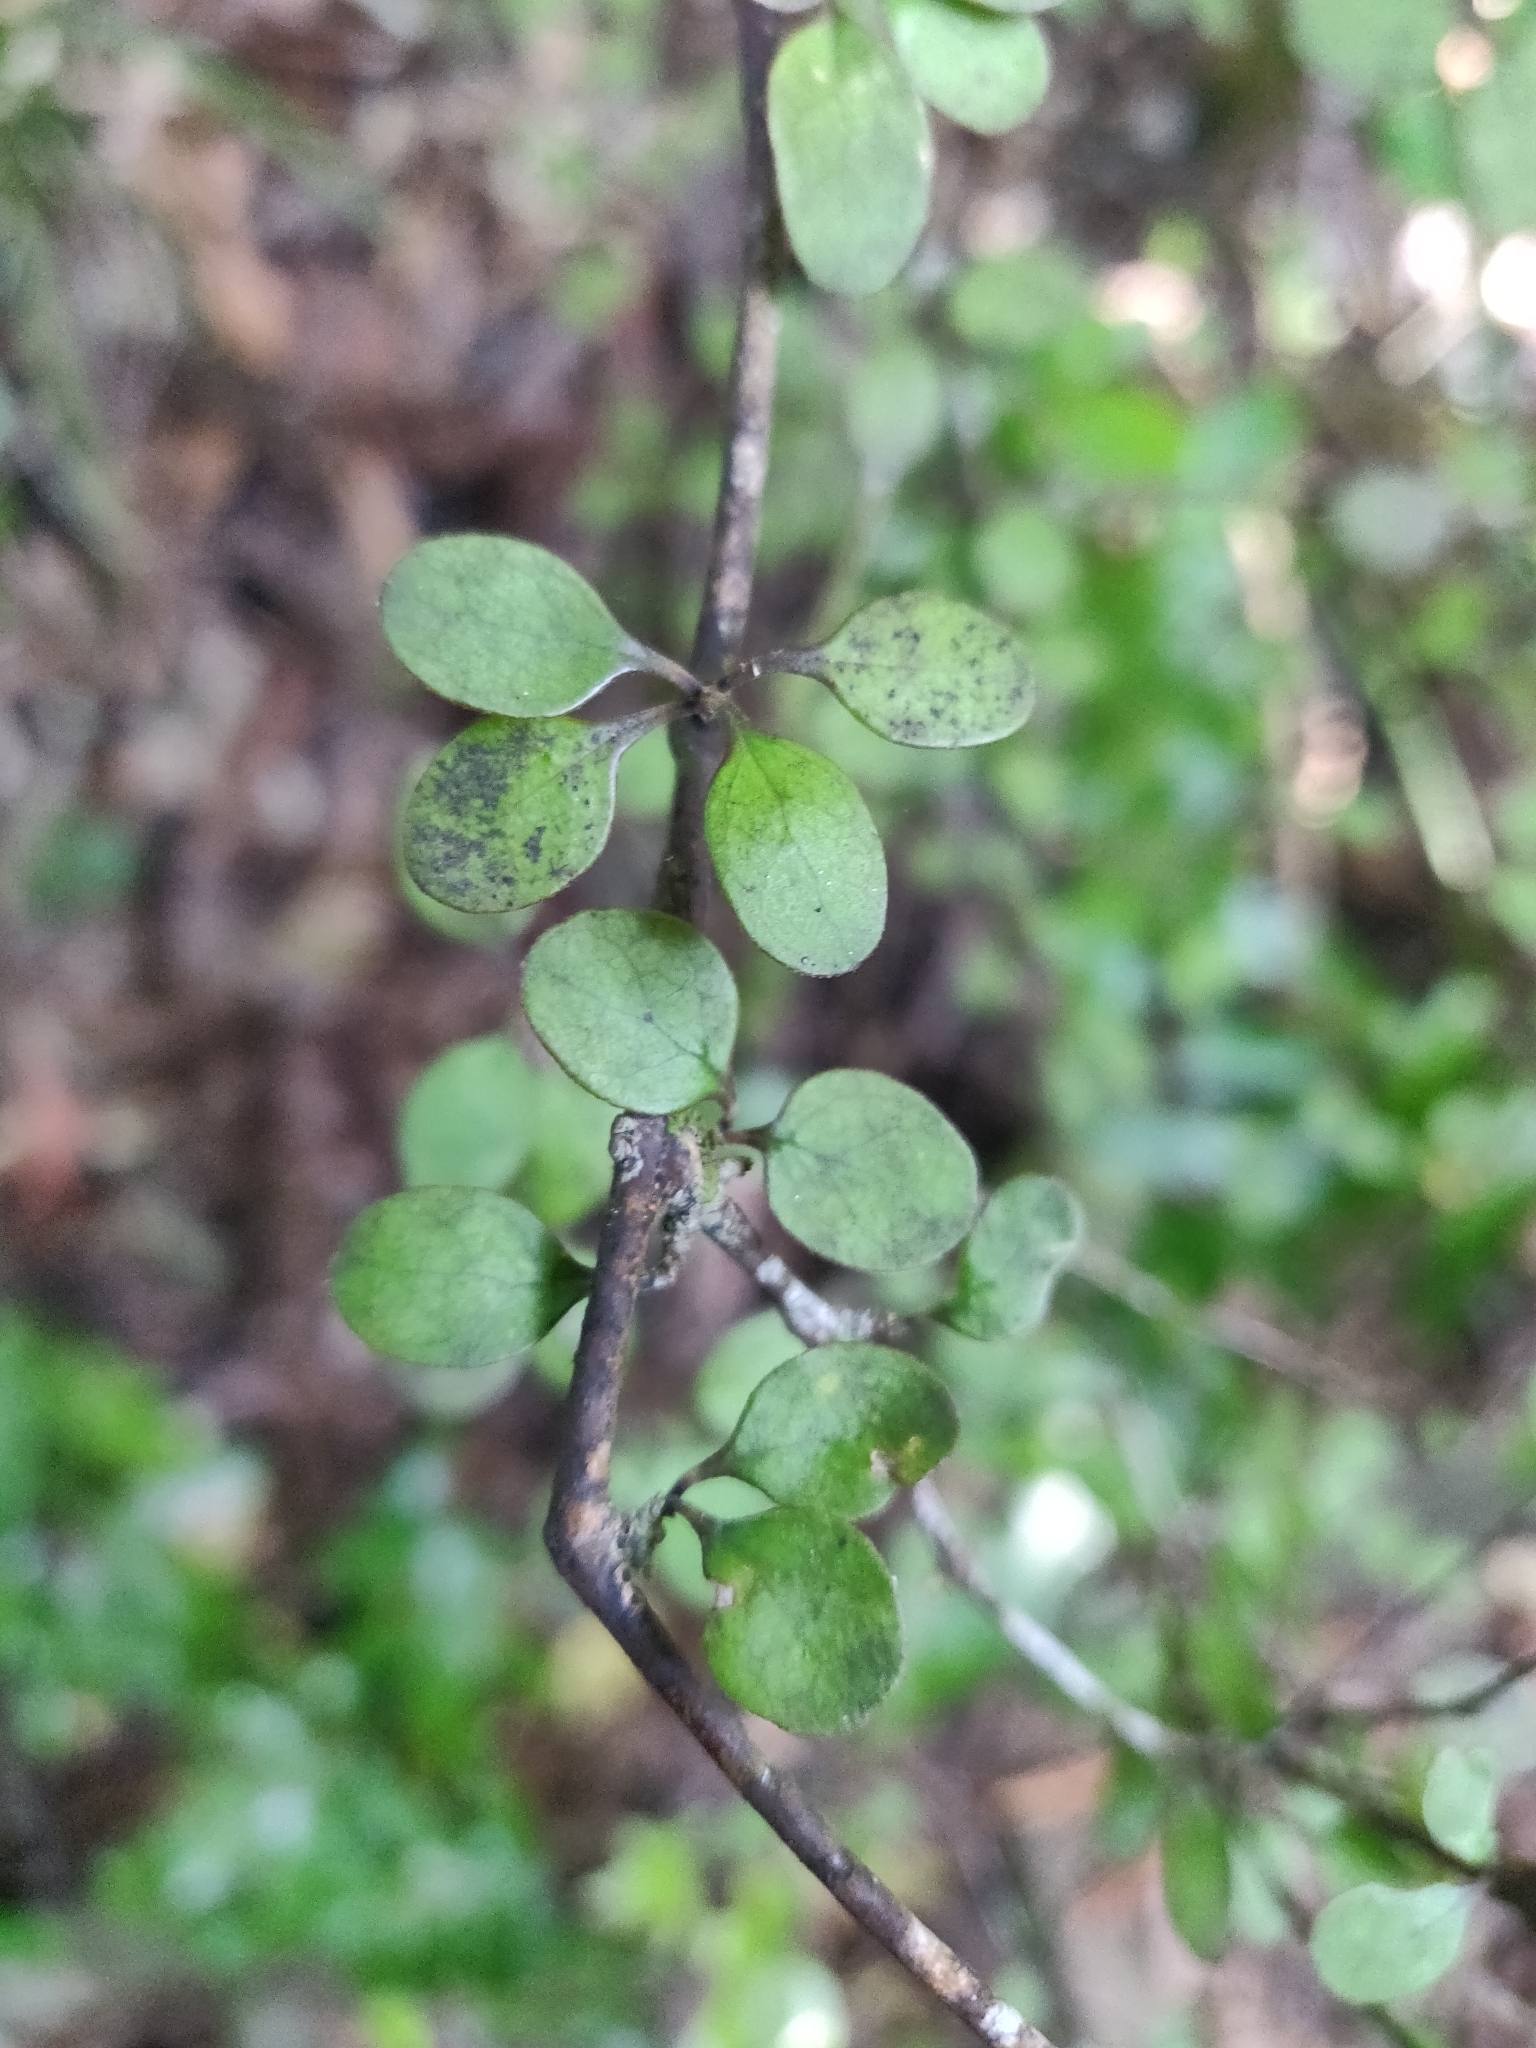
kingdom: Plantae
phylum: Tracheophyta
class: Magnoliopsida
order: Gentianales
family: Rubiaceae
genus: Coprosma
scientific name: Coprosma crassifolia
